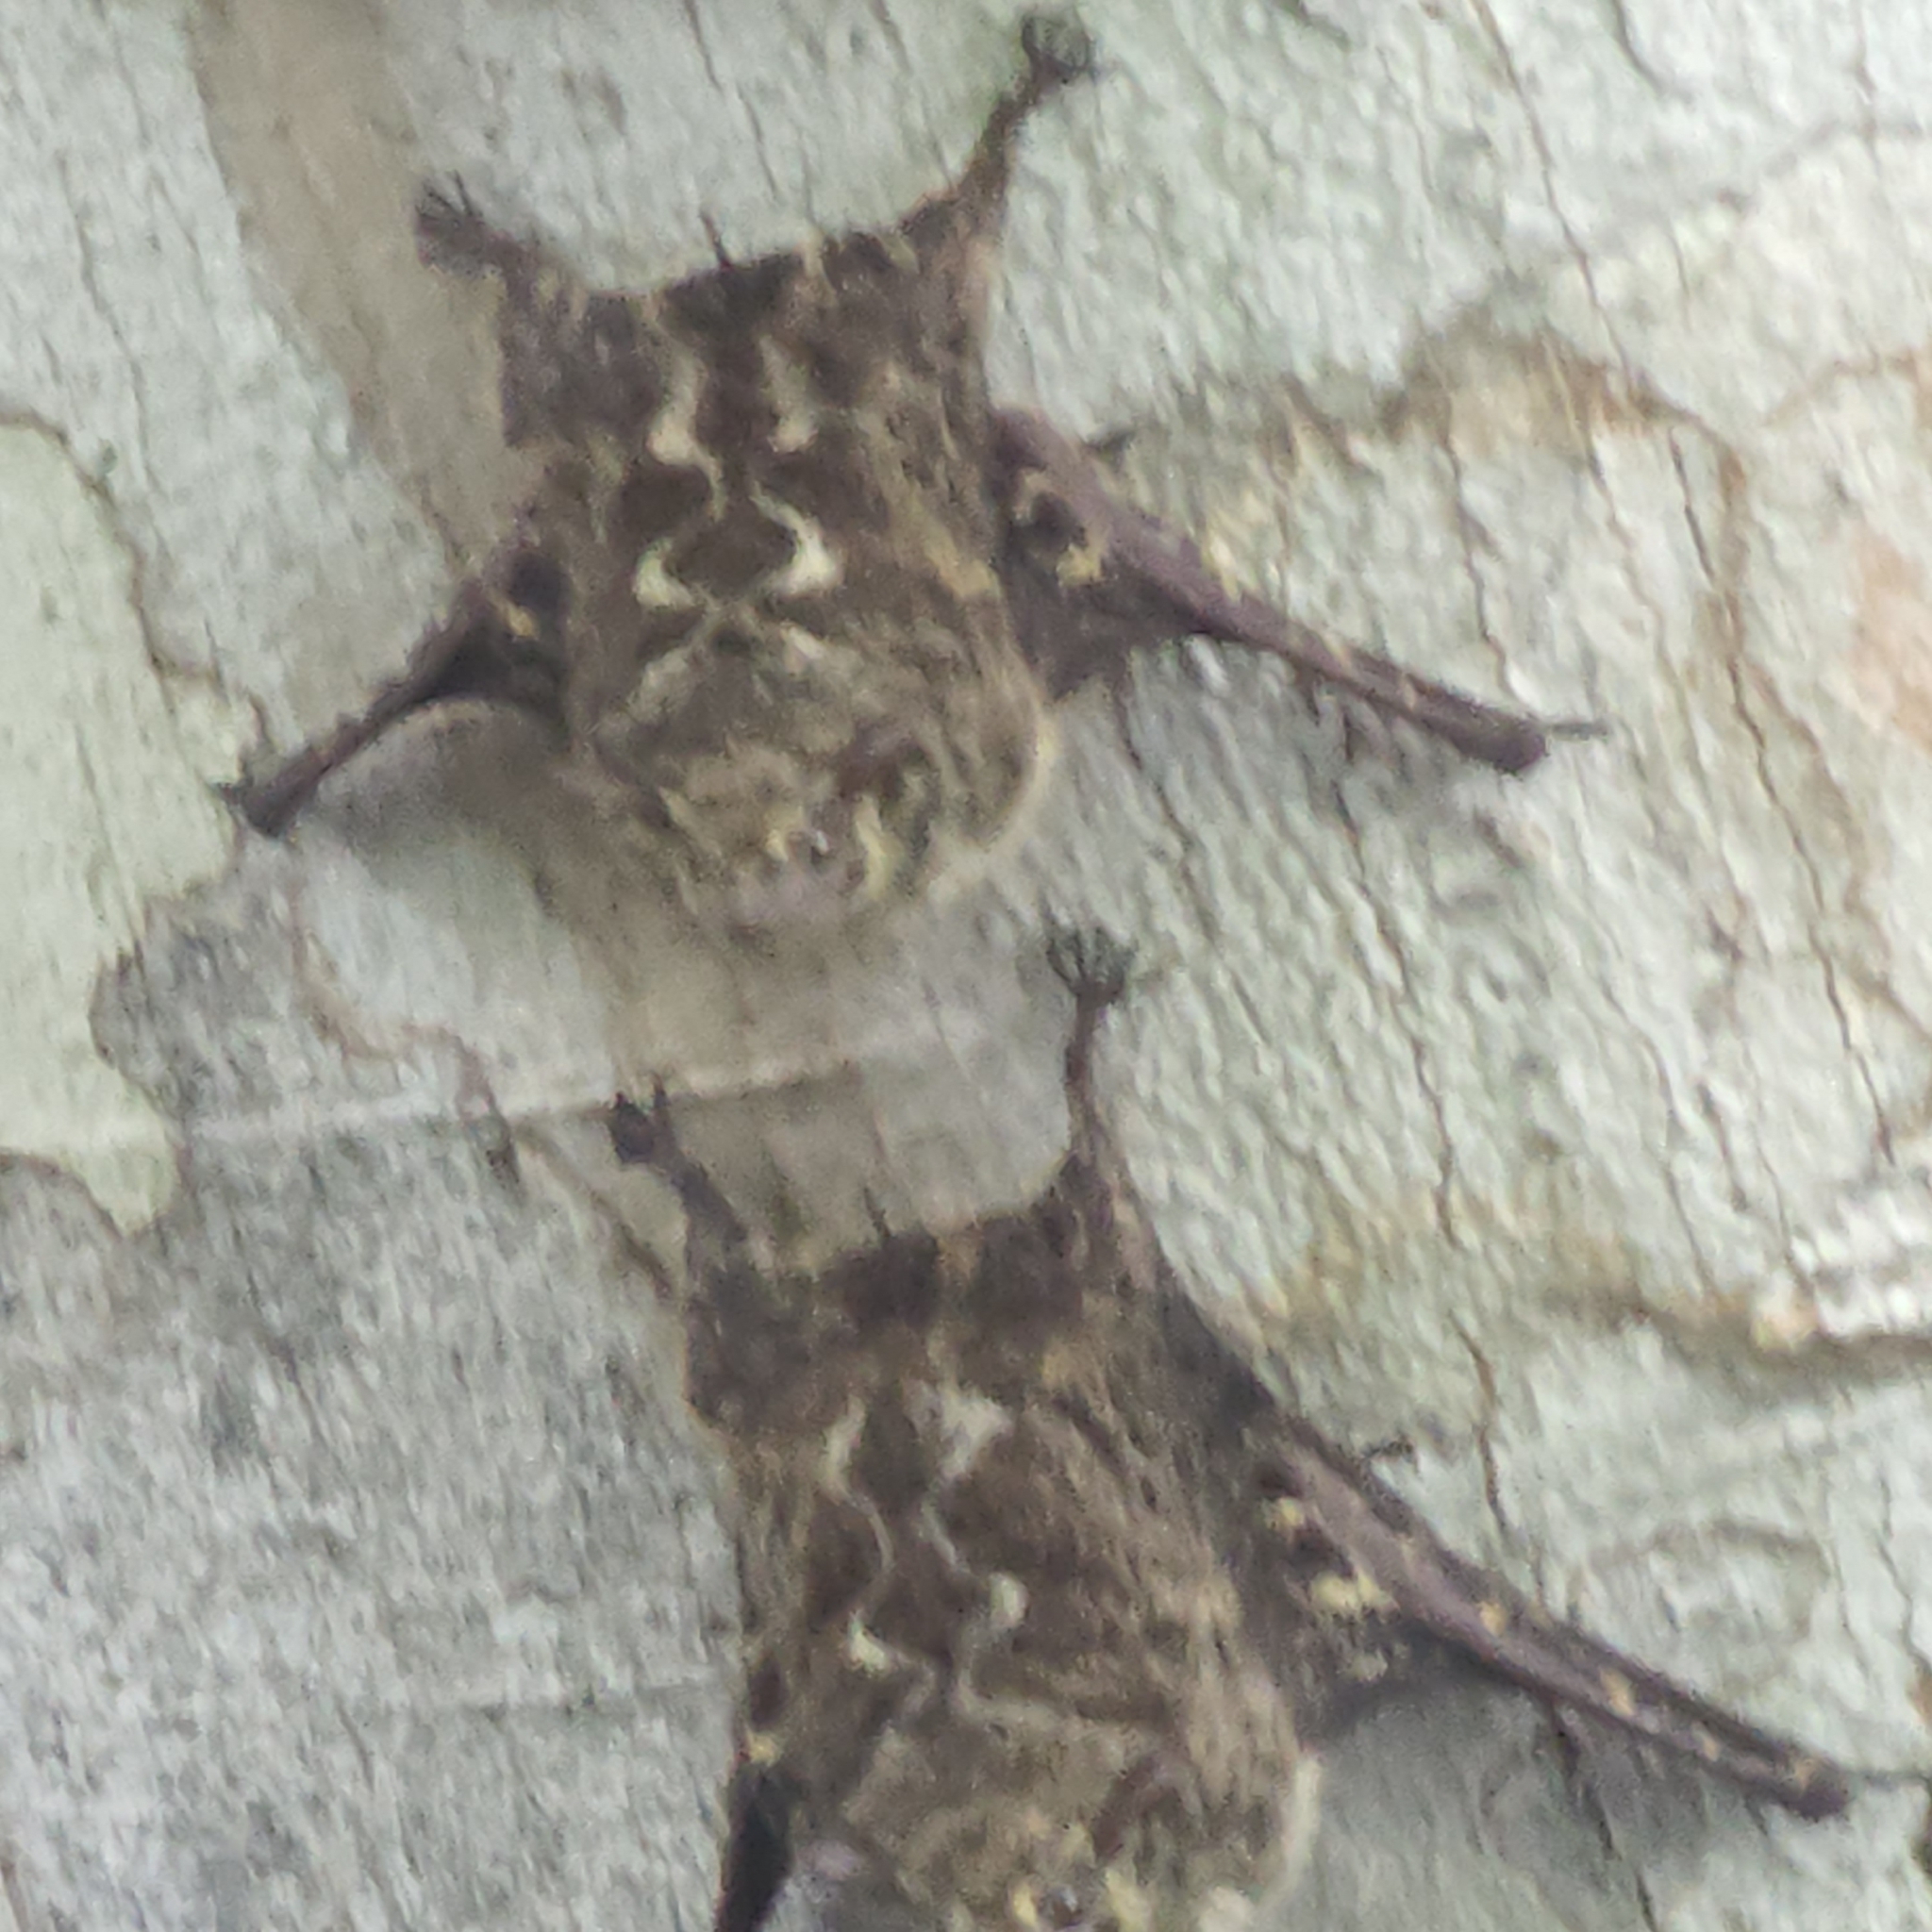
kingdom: Animalia
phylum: Chordata
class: Mammalia
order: Chiroptera
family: Emballonuridae
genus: Rhynchonycteris
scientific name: Rhynchonycteris naso
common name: Proboscis bat
